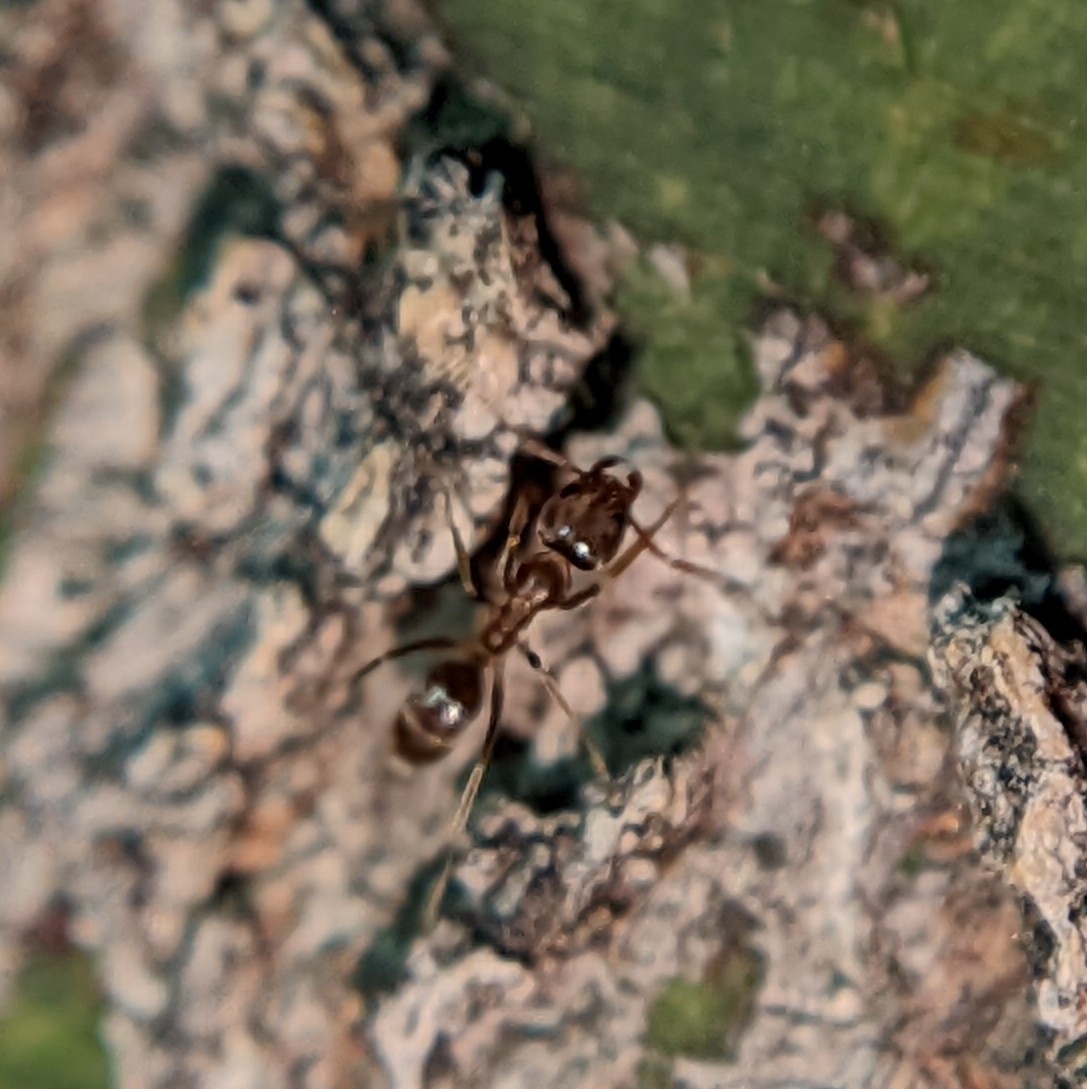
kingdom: Animalia
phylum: Arthropoda
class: Insecta
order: Hymenoptera
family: Formicidae
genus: Linepithema
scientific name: Linepithema humile
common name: Argentine ant
